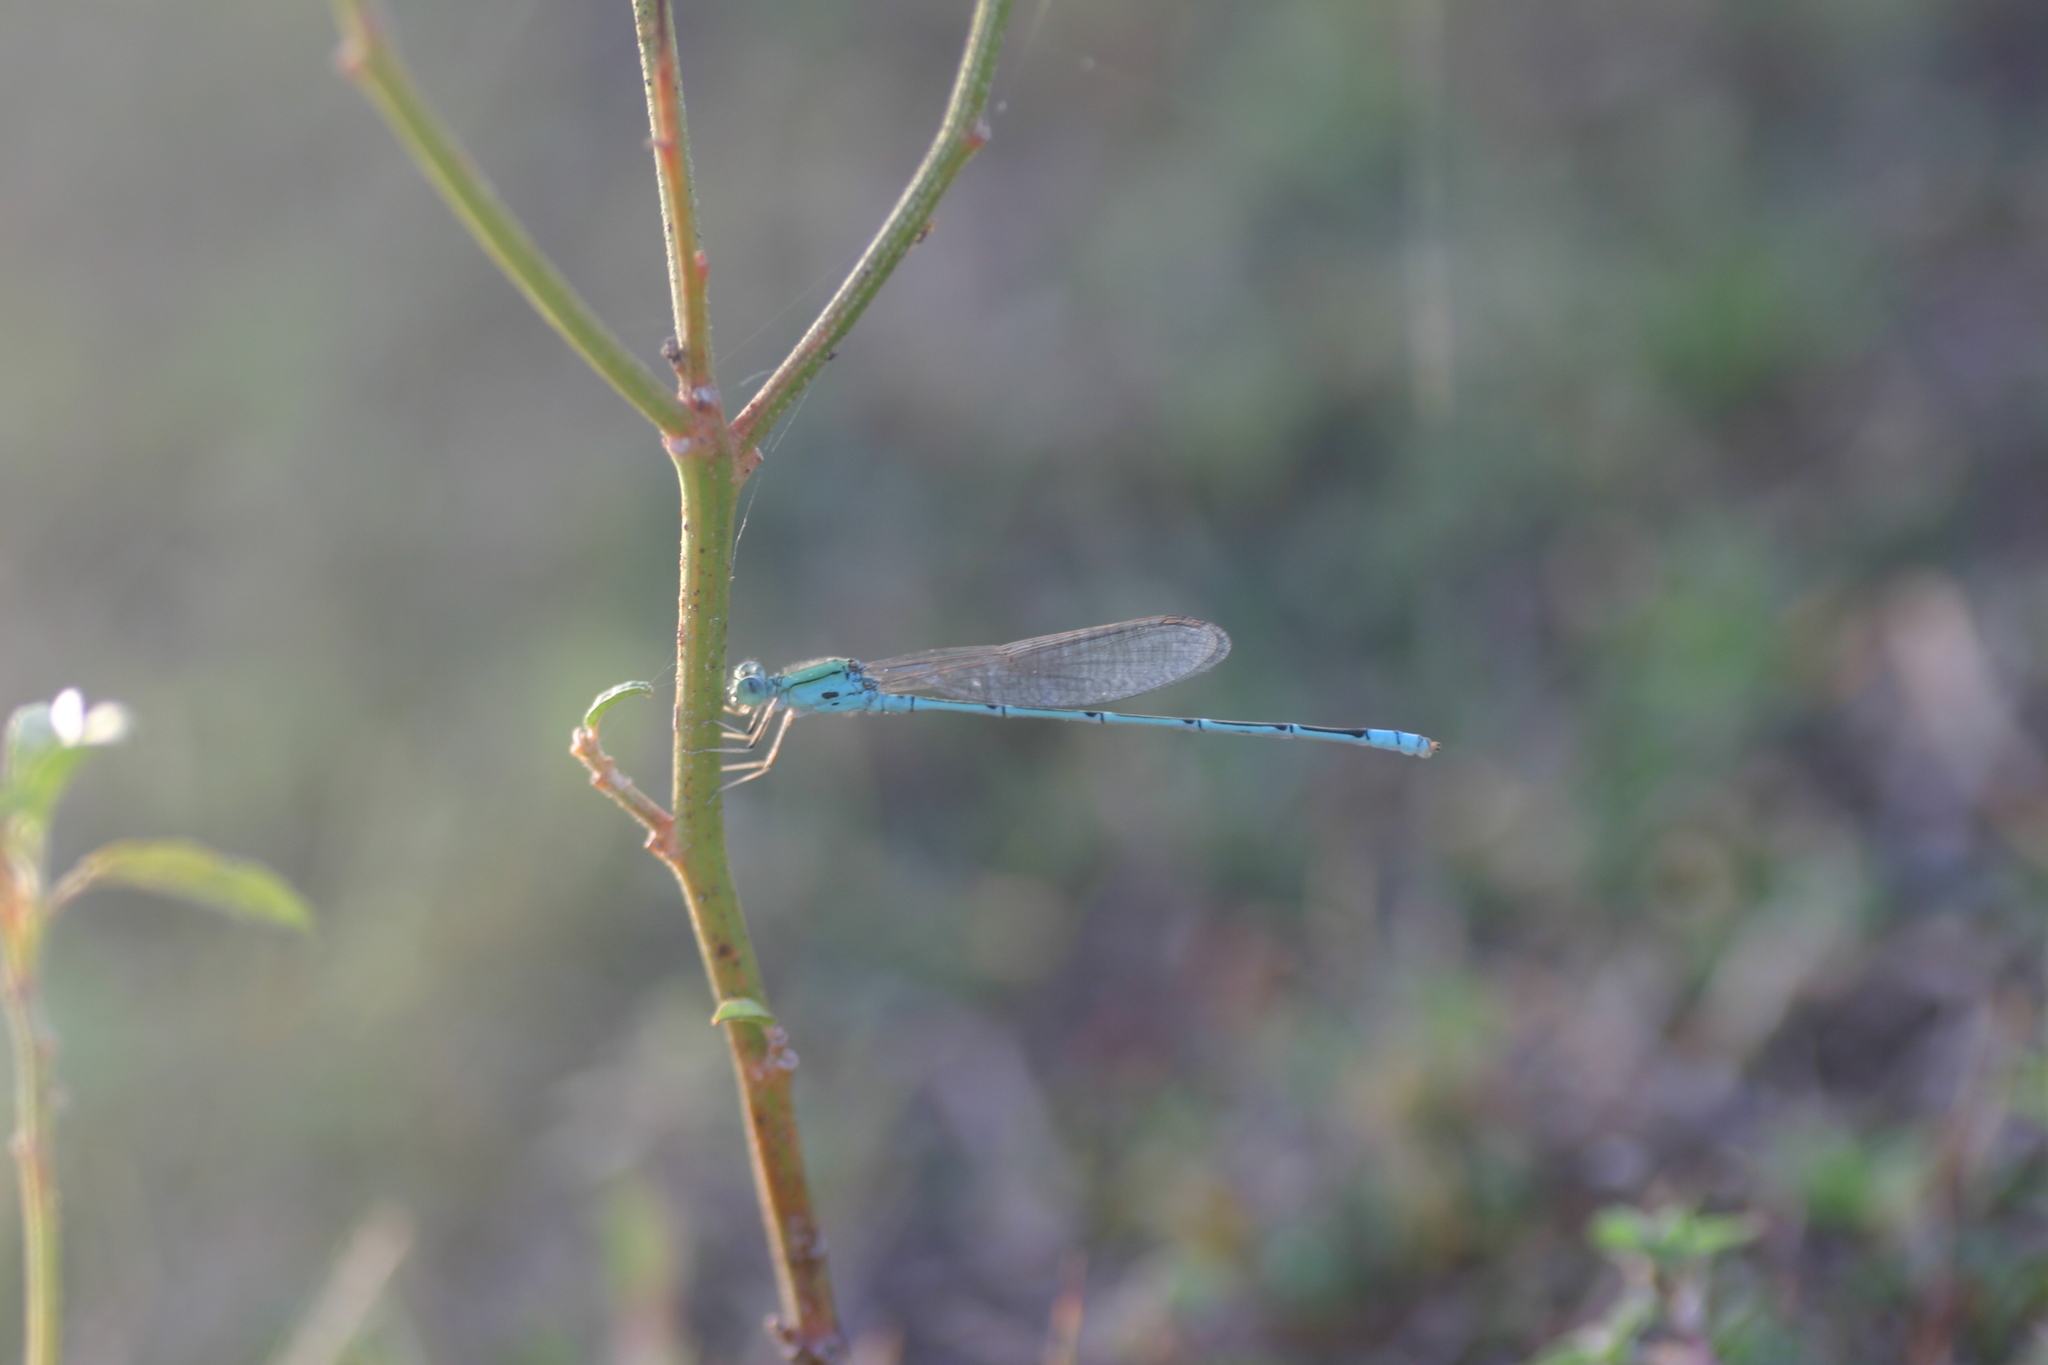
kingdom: Animalia
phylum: Arthropoda
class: Insecta
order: Odonata
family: Coenagrionidae
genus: Pseudagrion
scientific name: Pseudagrion decorum
